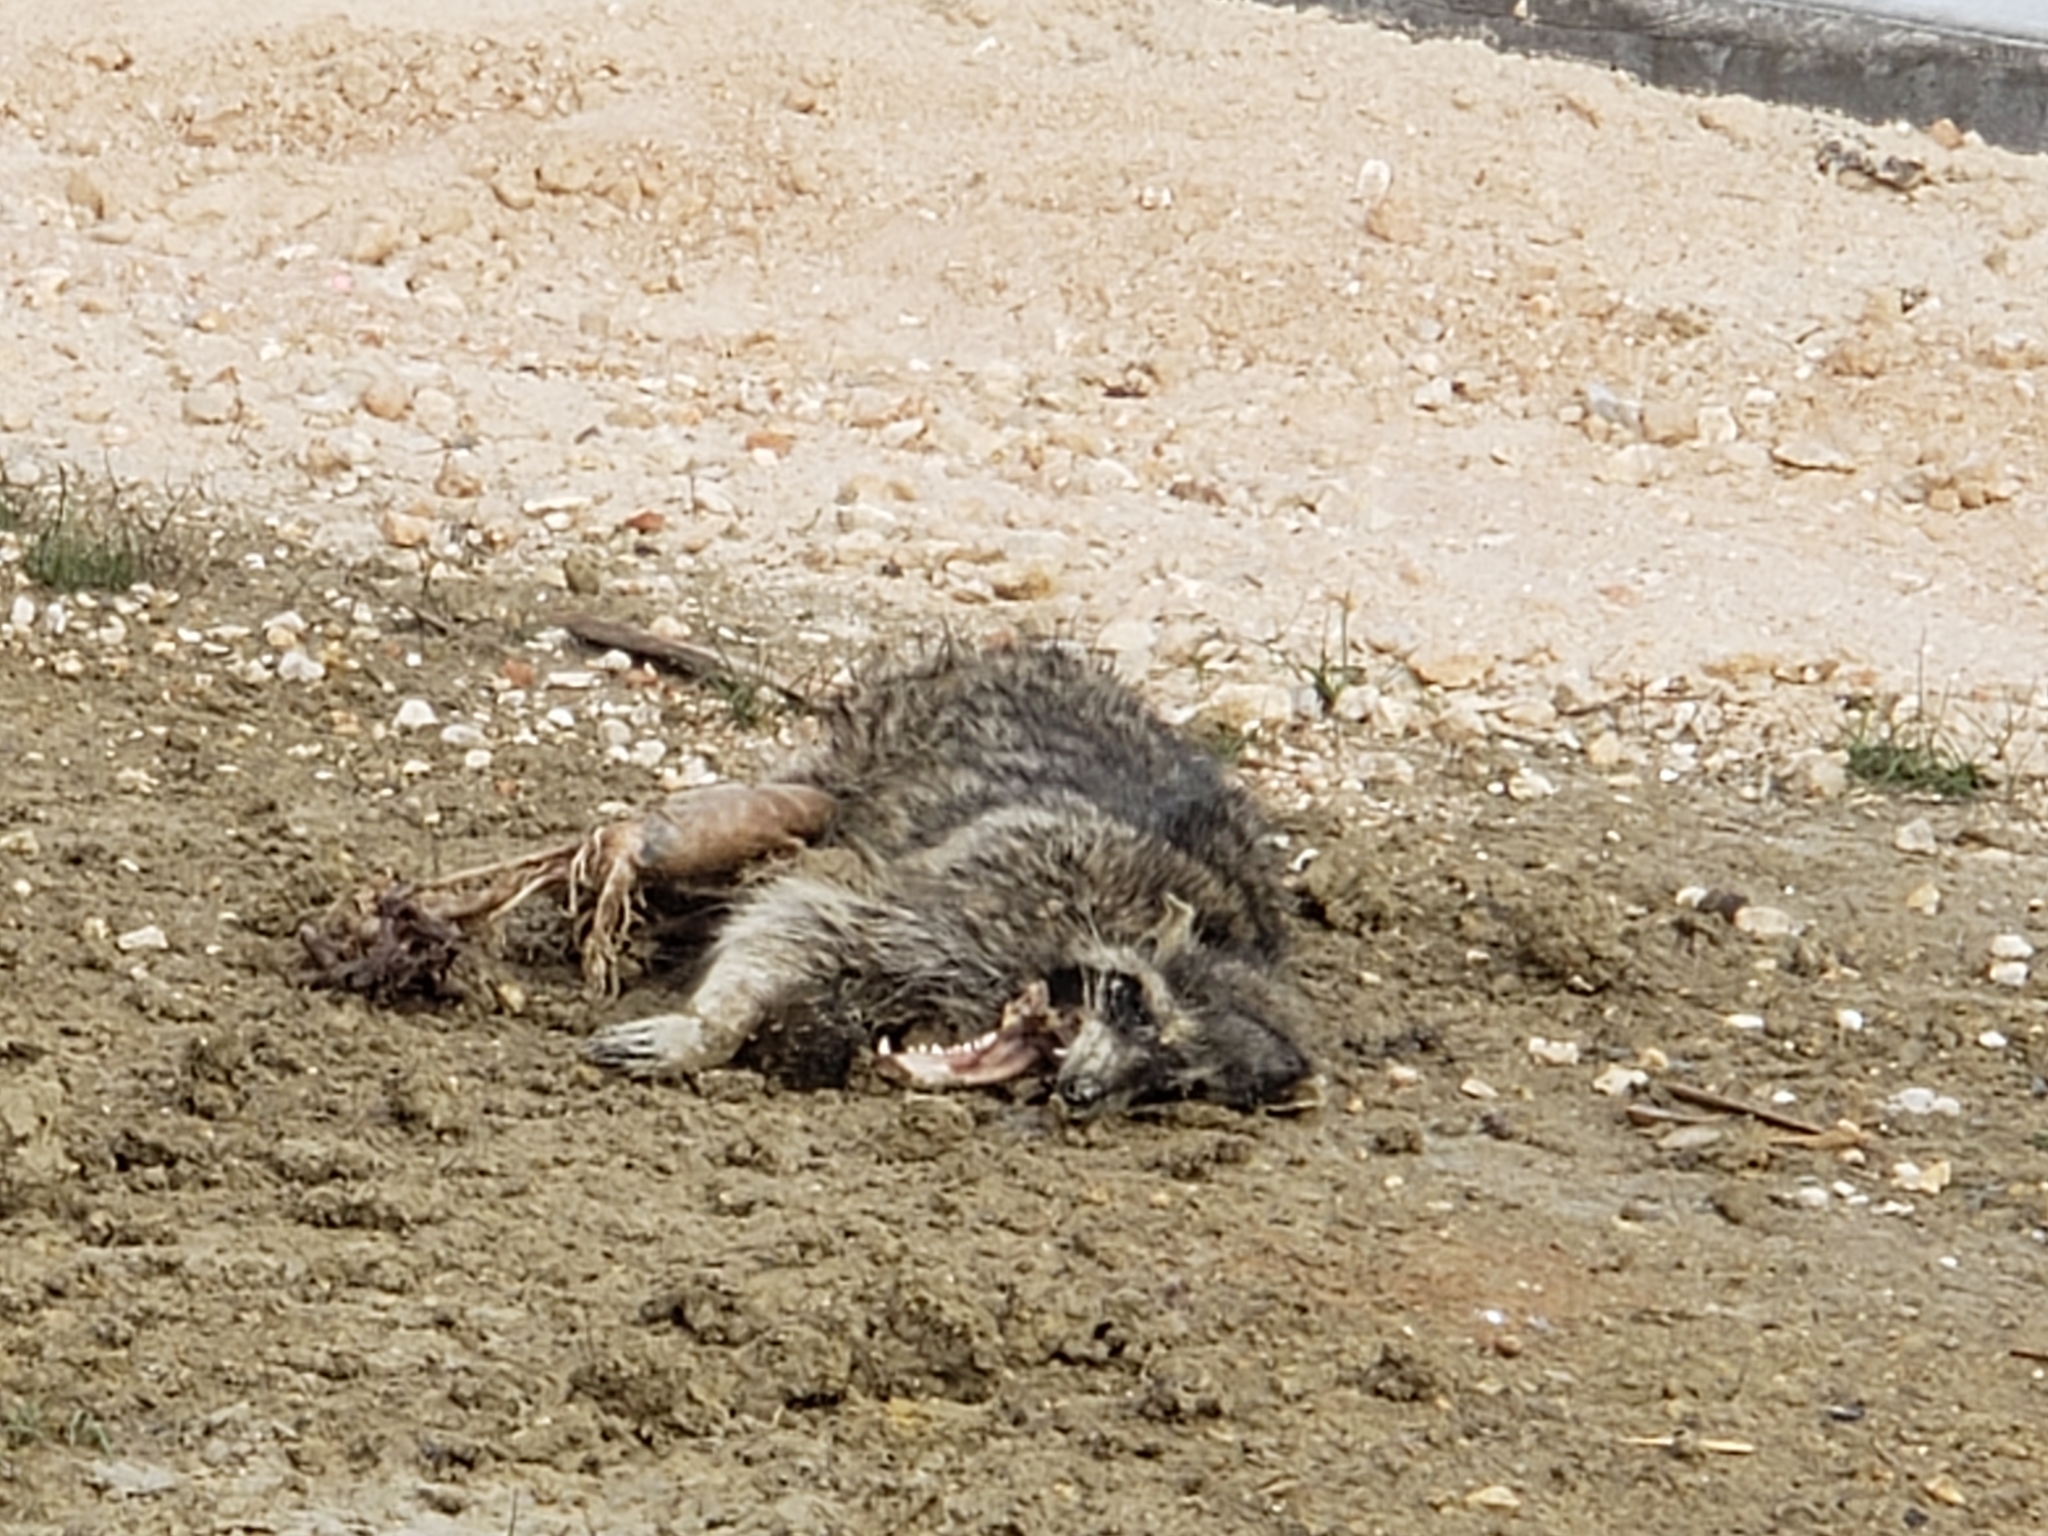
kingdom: Animalia
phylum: Chordata
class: Mammalia
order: Carnivora
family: Procyonidae
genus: Procyon
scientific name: Procyon lotor
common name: Raccoon
